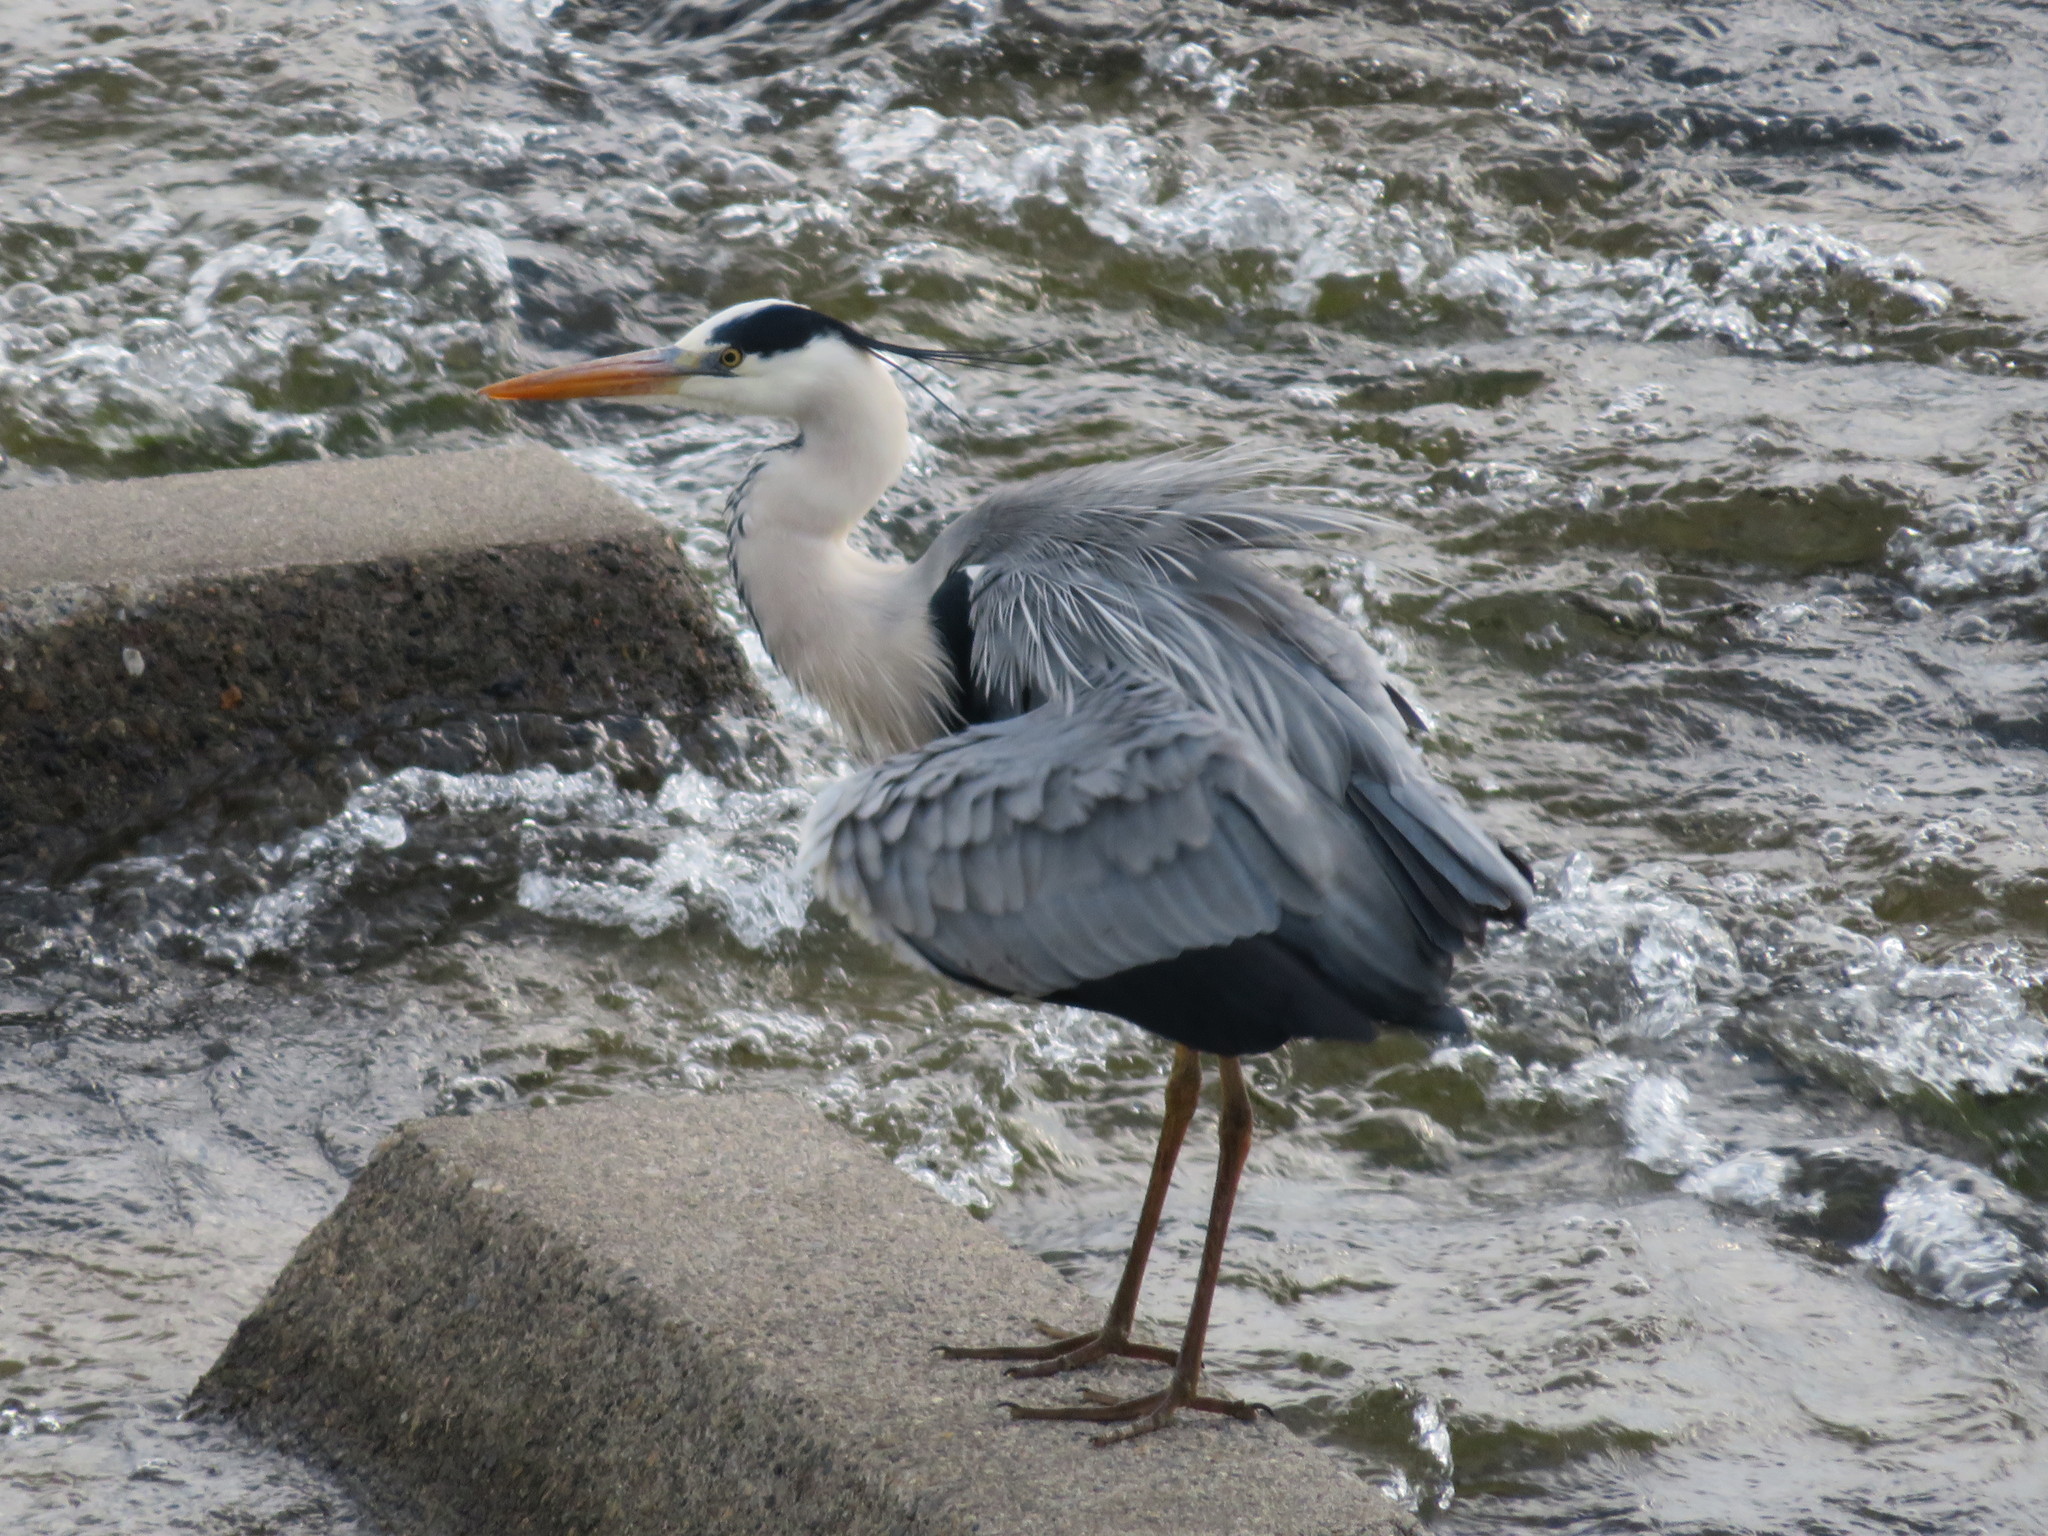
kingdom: Animalia
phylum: Chordata
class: Aves
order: Pelecaniformes
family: Ardeidae
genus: Ardea
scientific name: Ardea cinerea
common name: Grey heron
